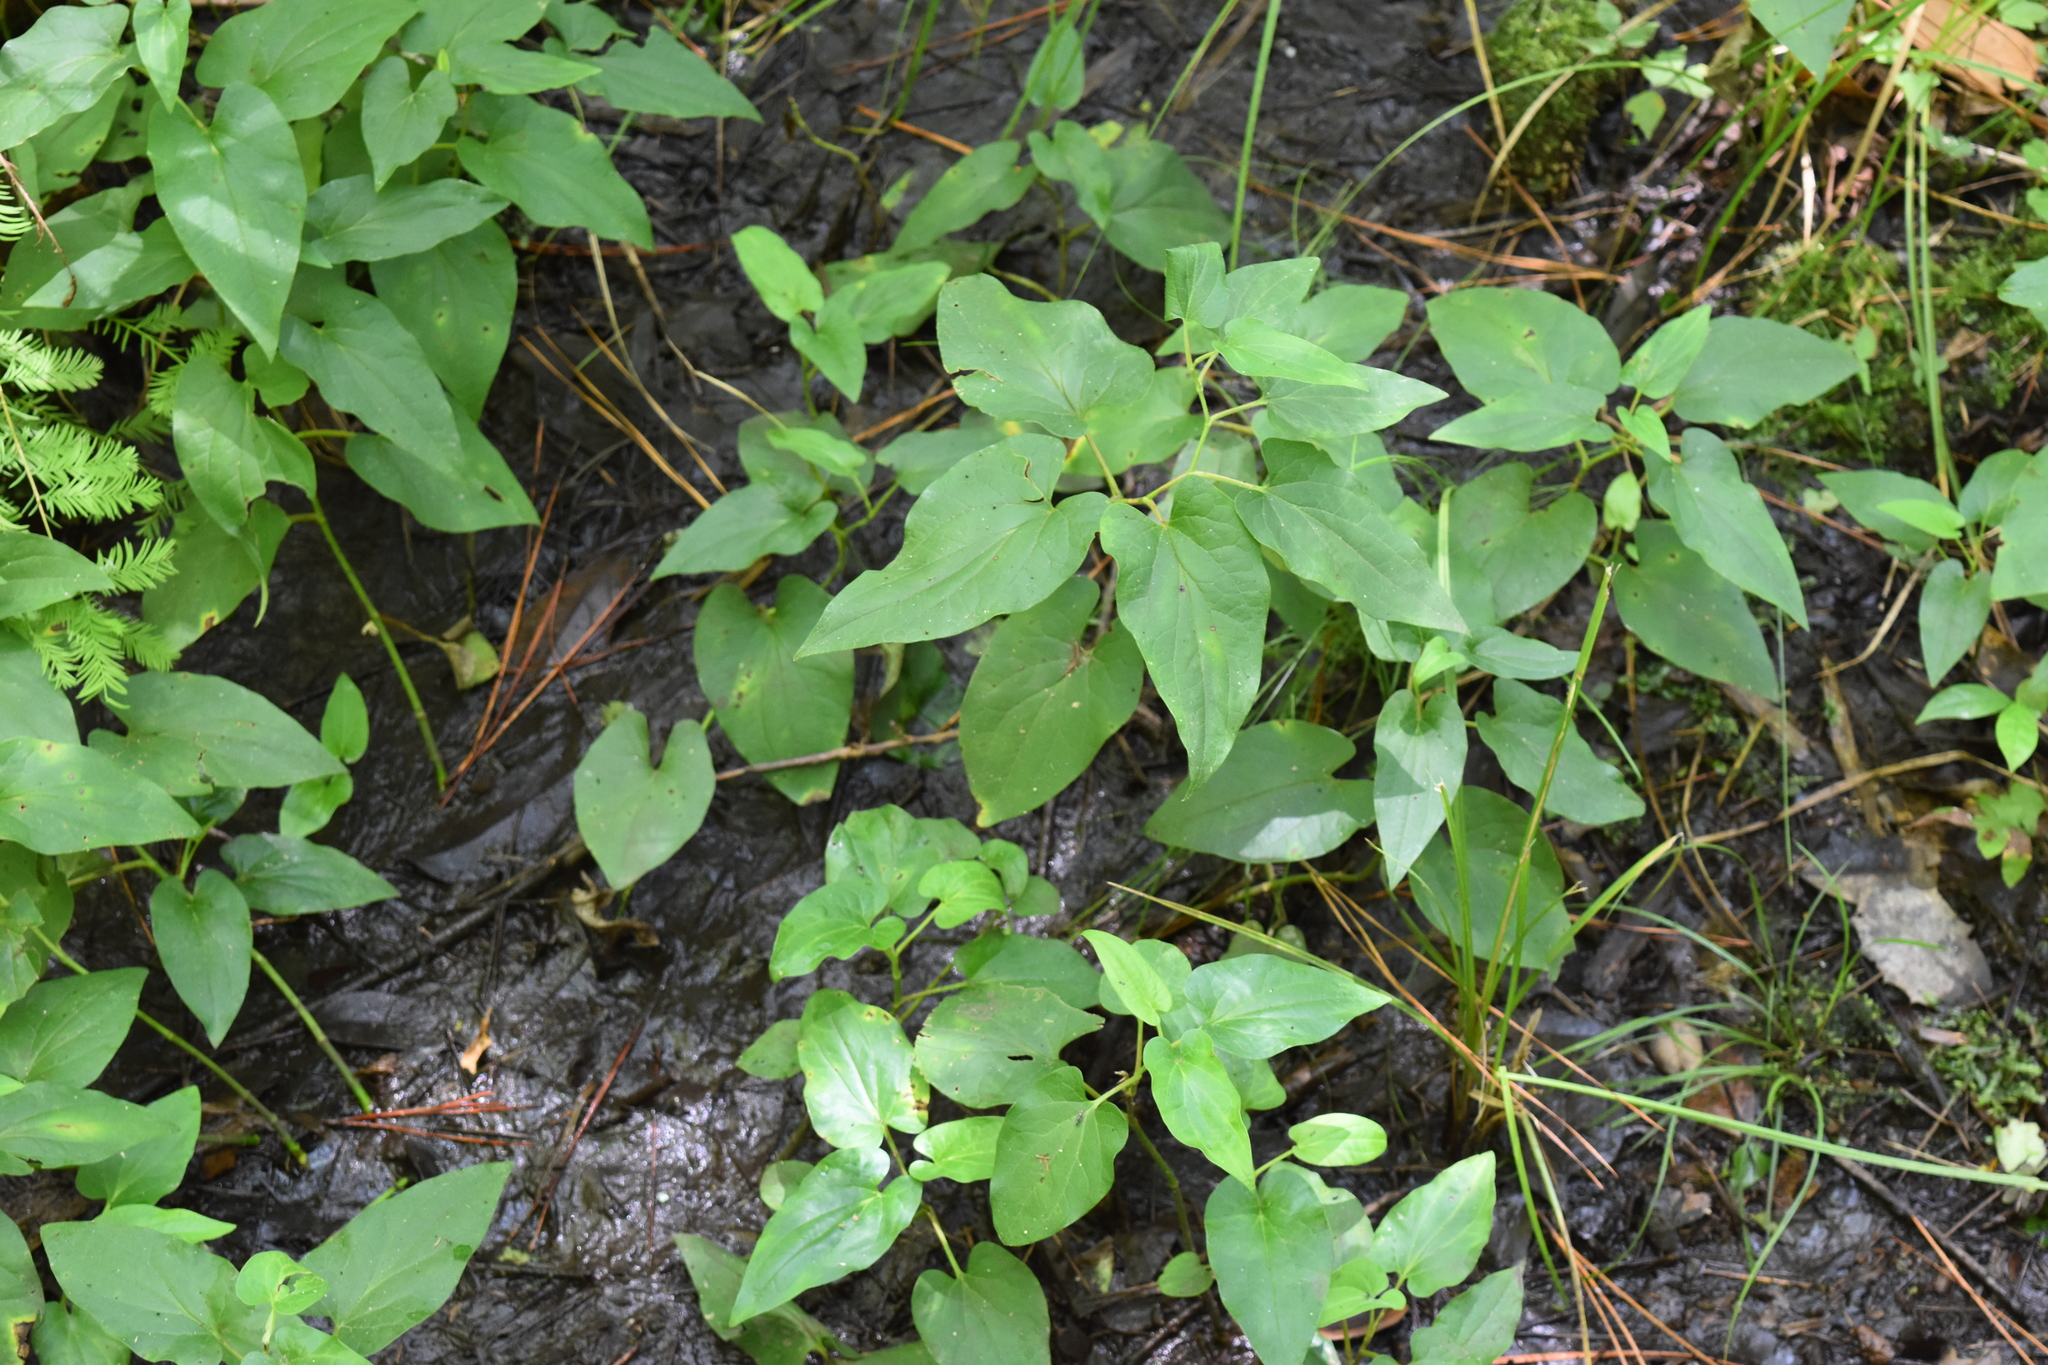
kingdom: Plantae
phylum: Tracheophyta
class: Magnoliopsida
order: Piperales
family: Saururaceae
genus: Saururus
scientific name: Saururus cernuus
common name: Lizard's-tail
